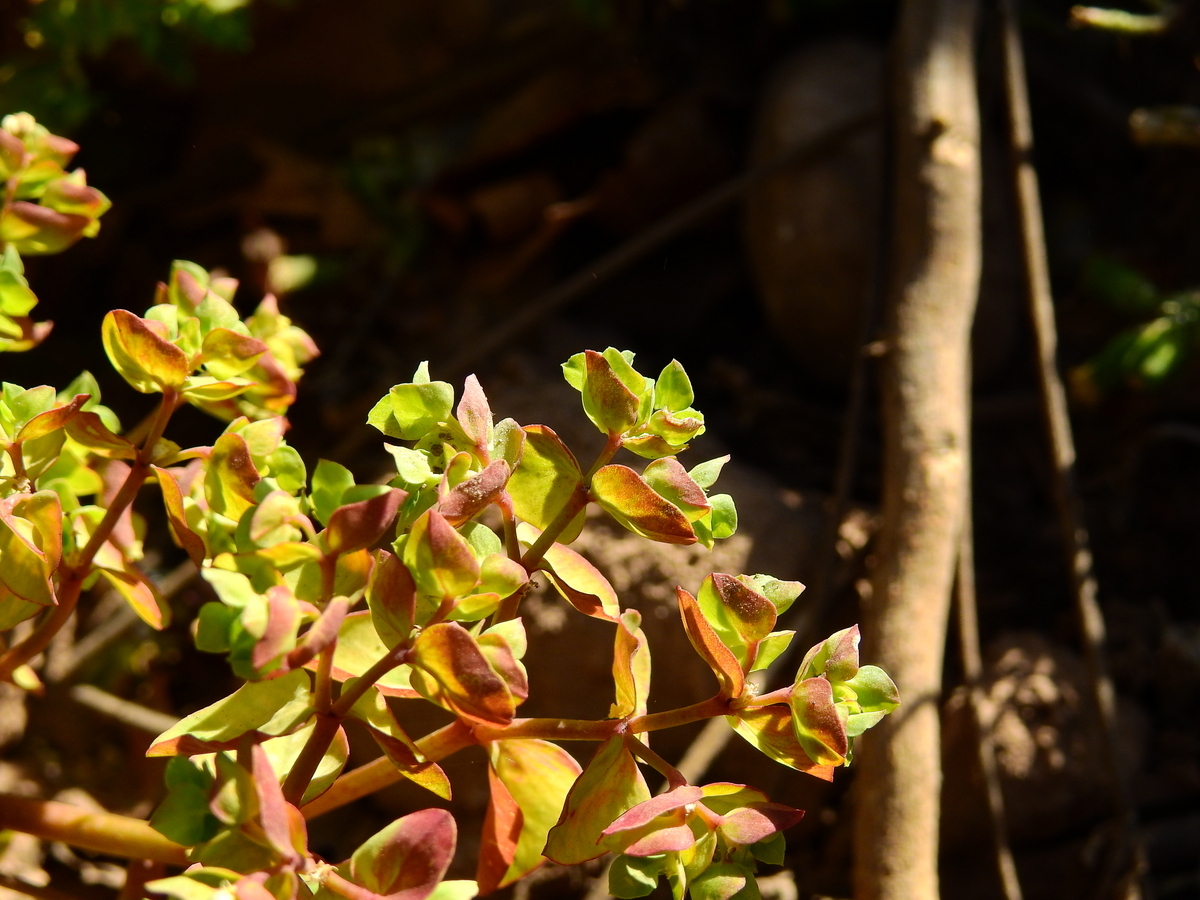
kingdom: Plantae
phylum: Tracheophyta
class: Magnoliopsida
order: Malpighiales
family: Euphorbiaceae
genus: Euphorbia
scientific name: Euphorbia peplus
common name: Petty spurge
